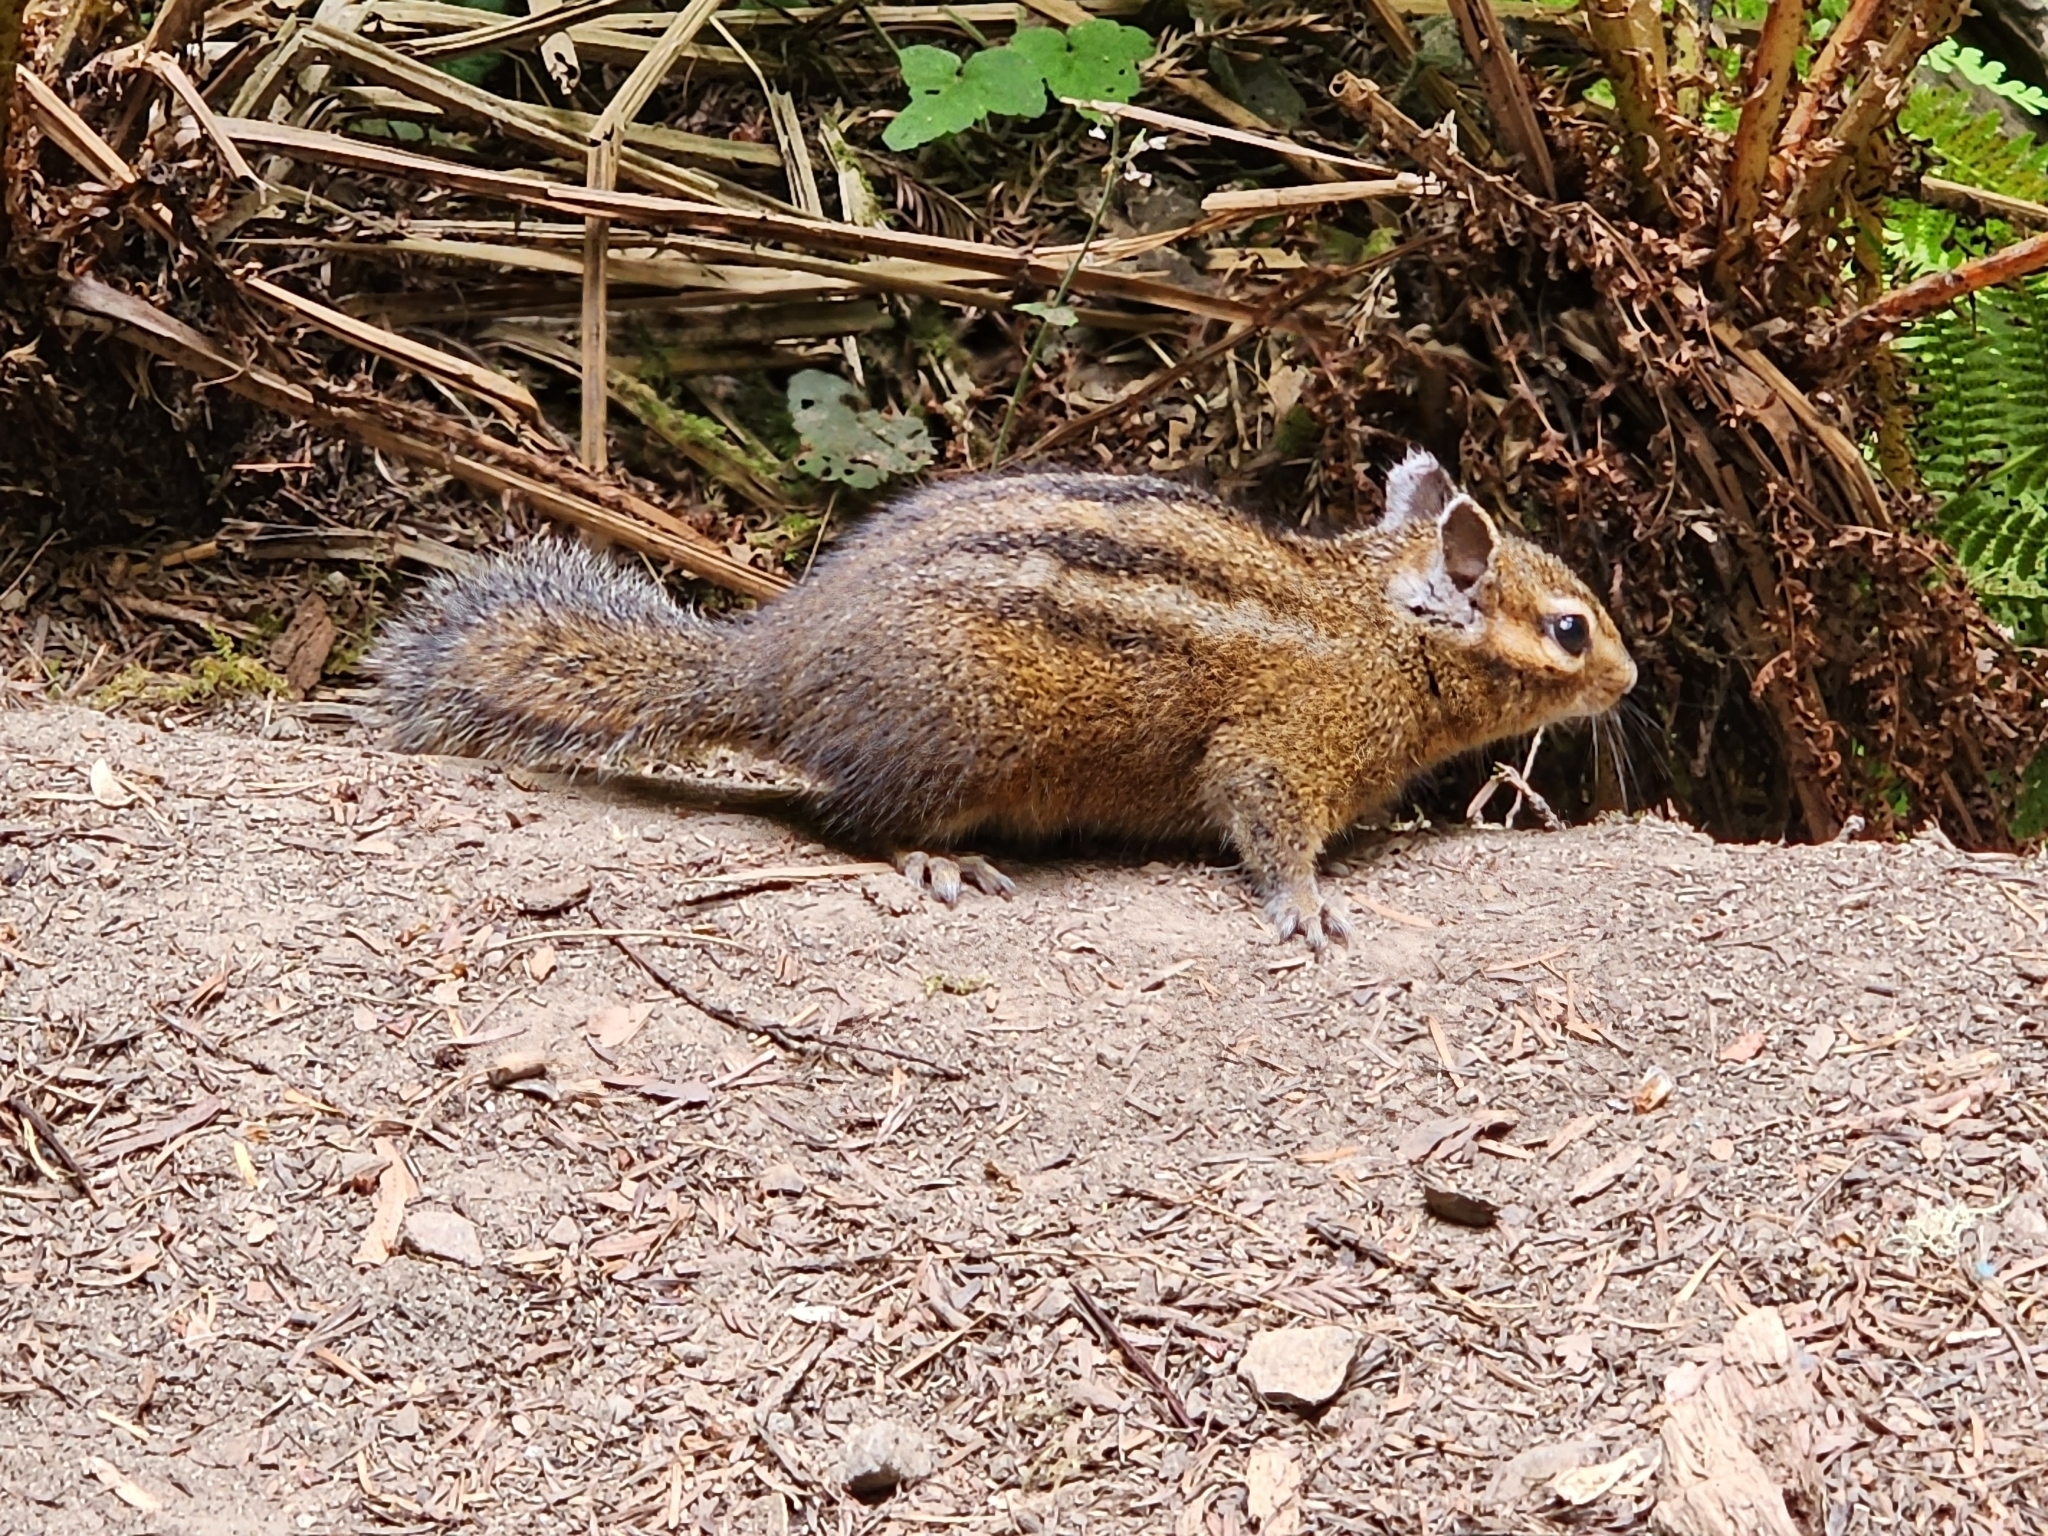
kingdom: Animalia
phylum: Chordata
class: Mammalia
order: Rodentia
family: Sciuridae
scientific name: Sciuridae
